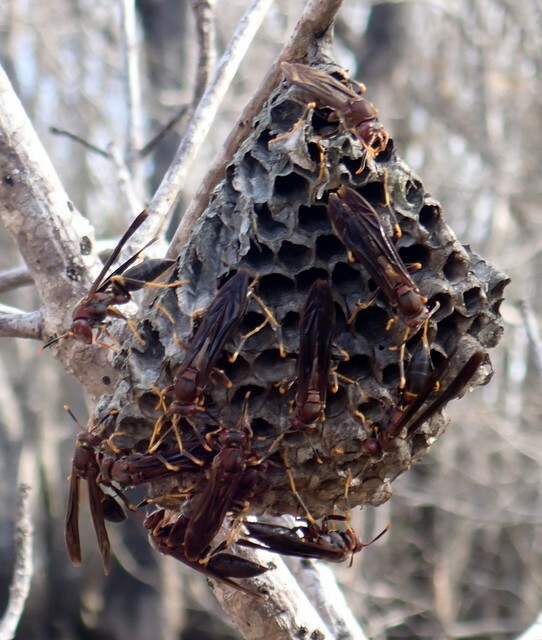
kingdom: Animalia
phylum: Arthropoda
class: Insecta
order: Hymenoptera
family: Eumenidae
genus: Polistes
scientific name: Polistes annularis
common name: Ringed paper wasp
